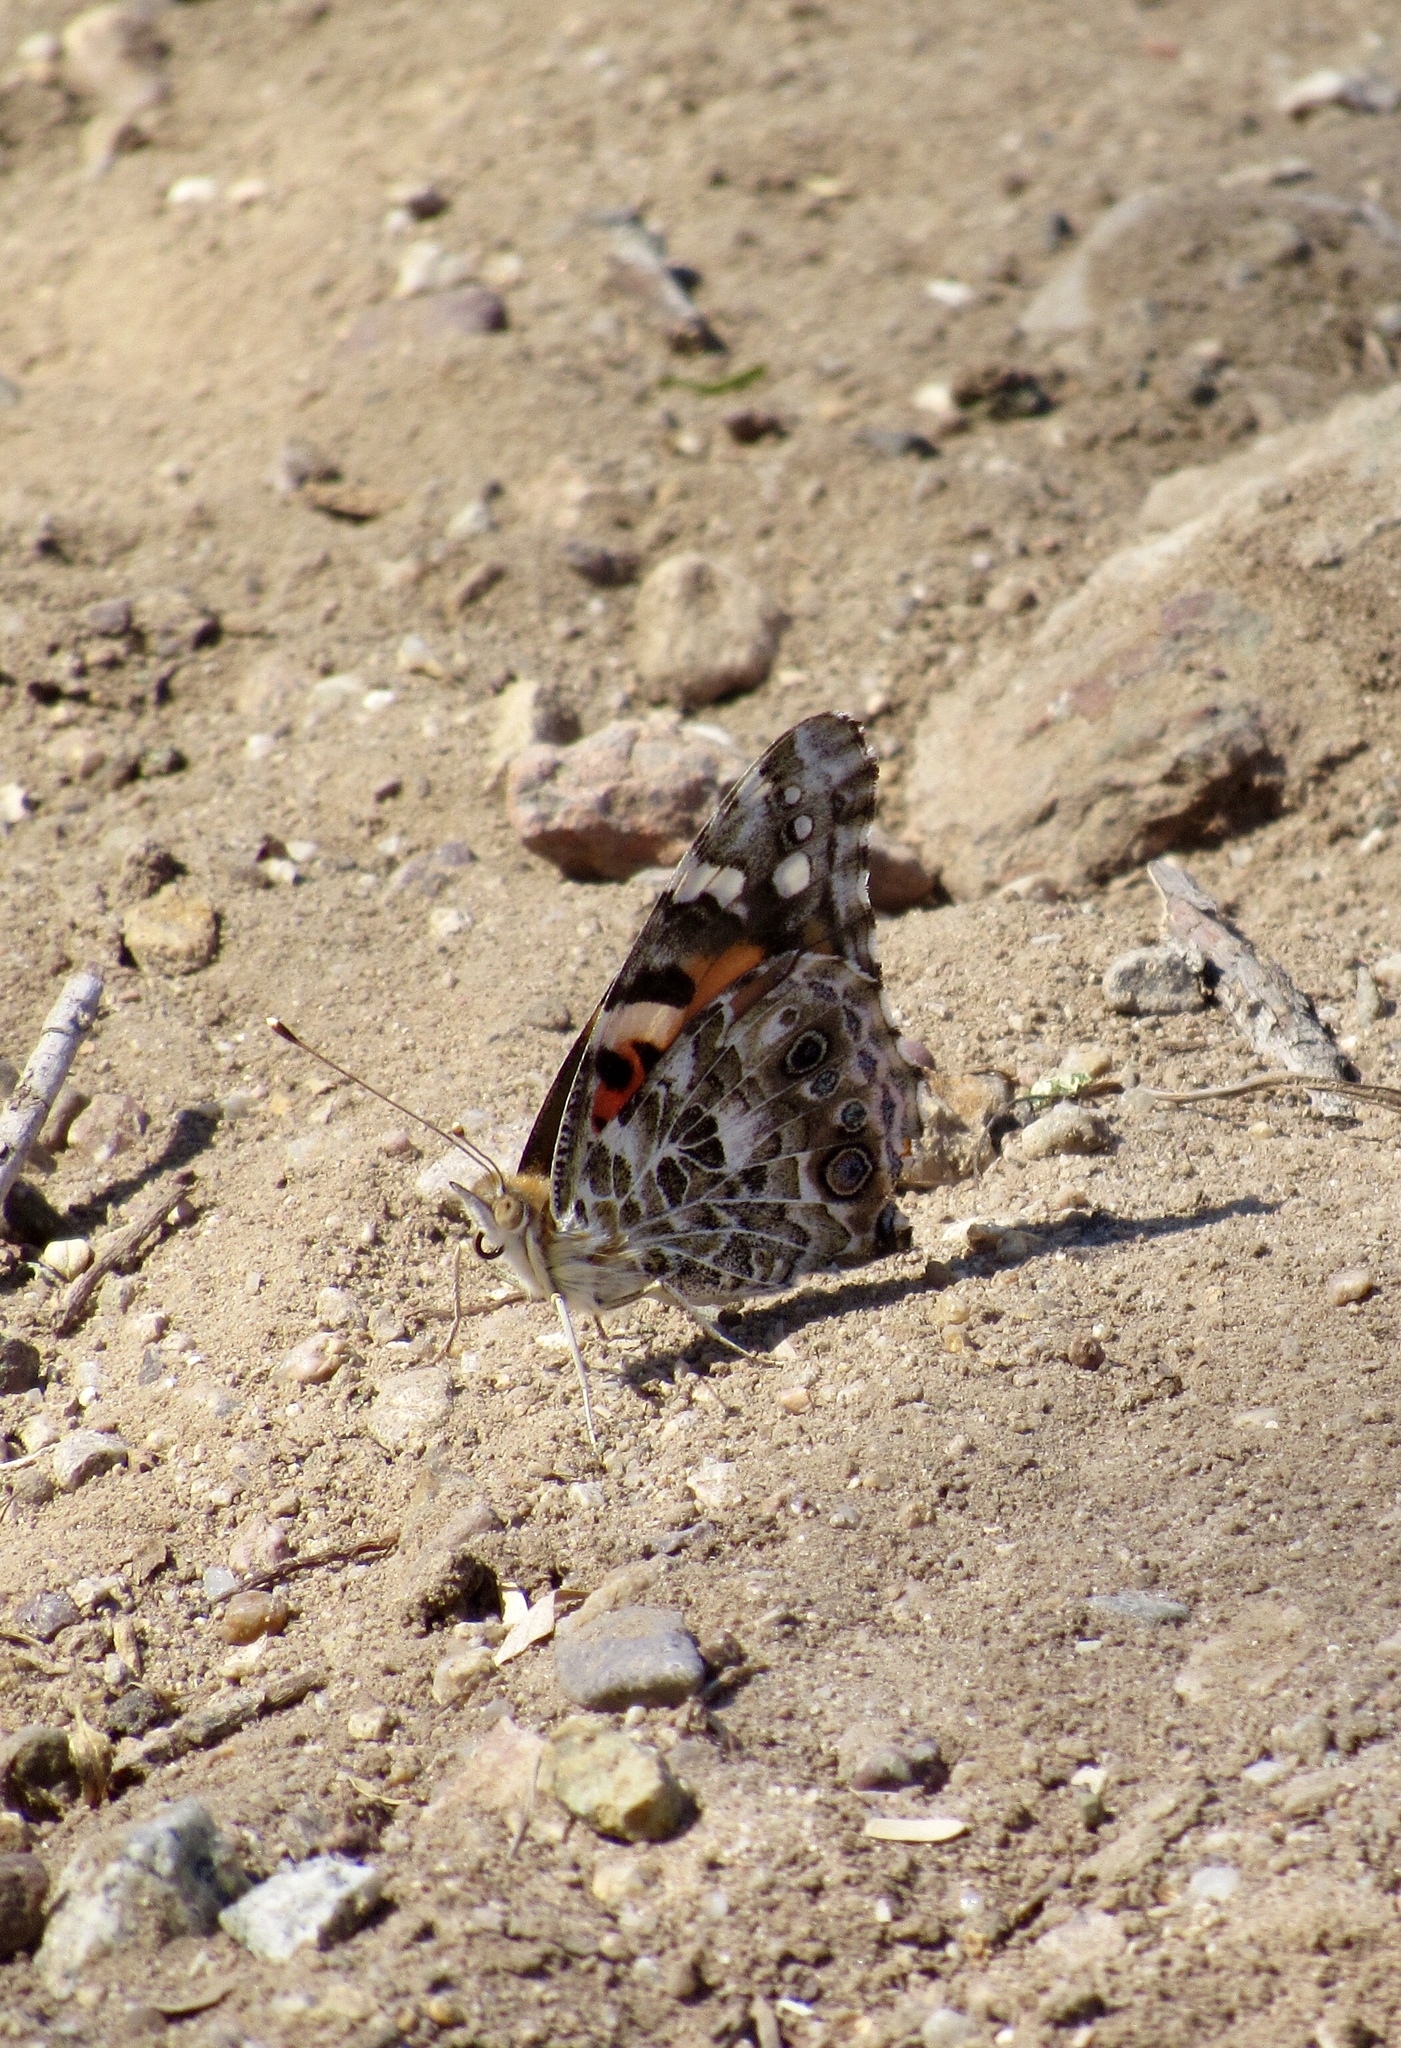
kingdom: Animalia
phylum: Arthropoda
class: Insecta
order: Lepidoptera
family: Nymphalidae
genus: Vanessa
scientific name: Vanessa cardui
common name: Painted lady
